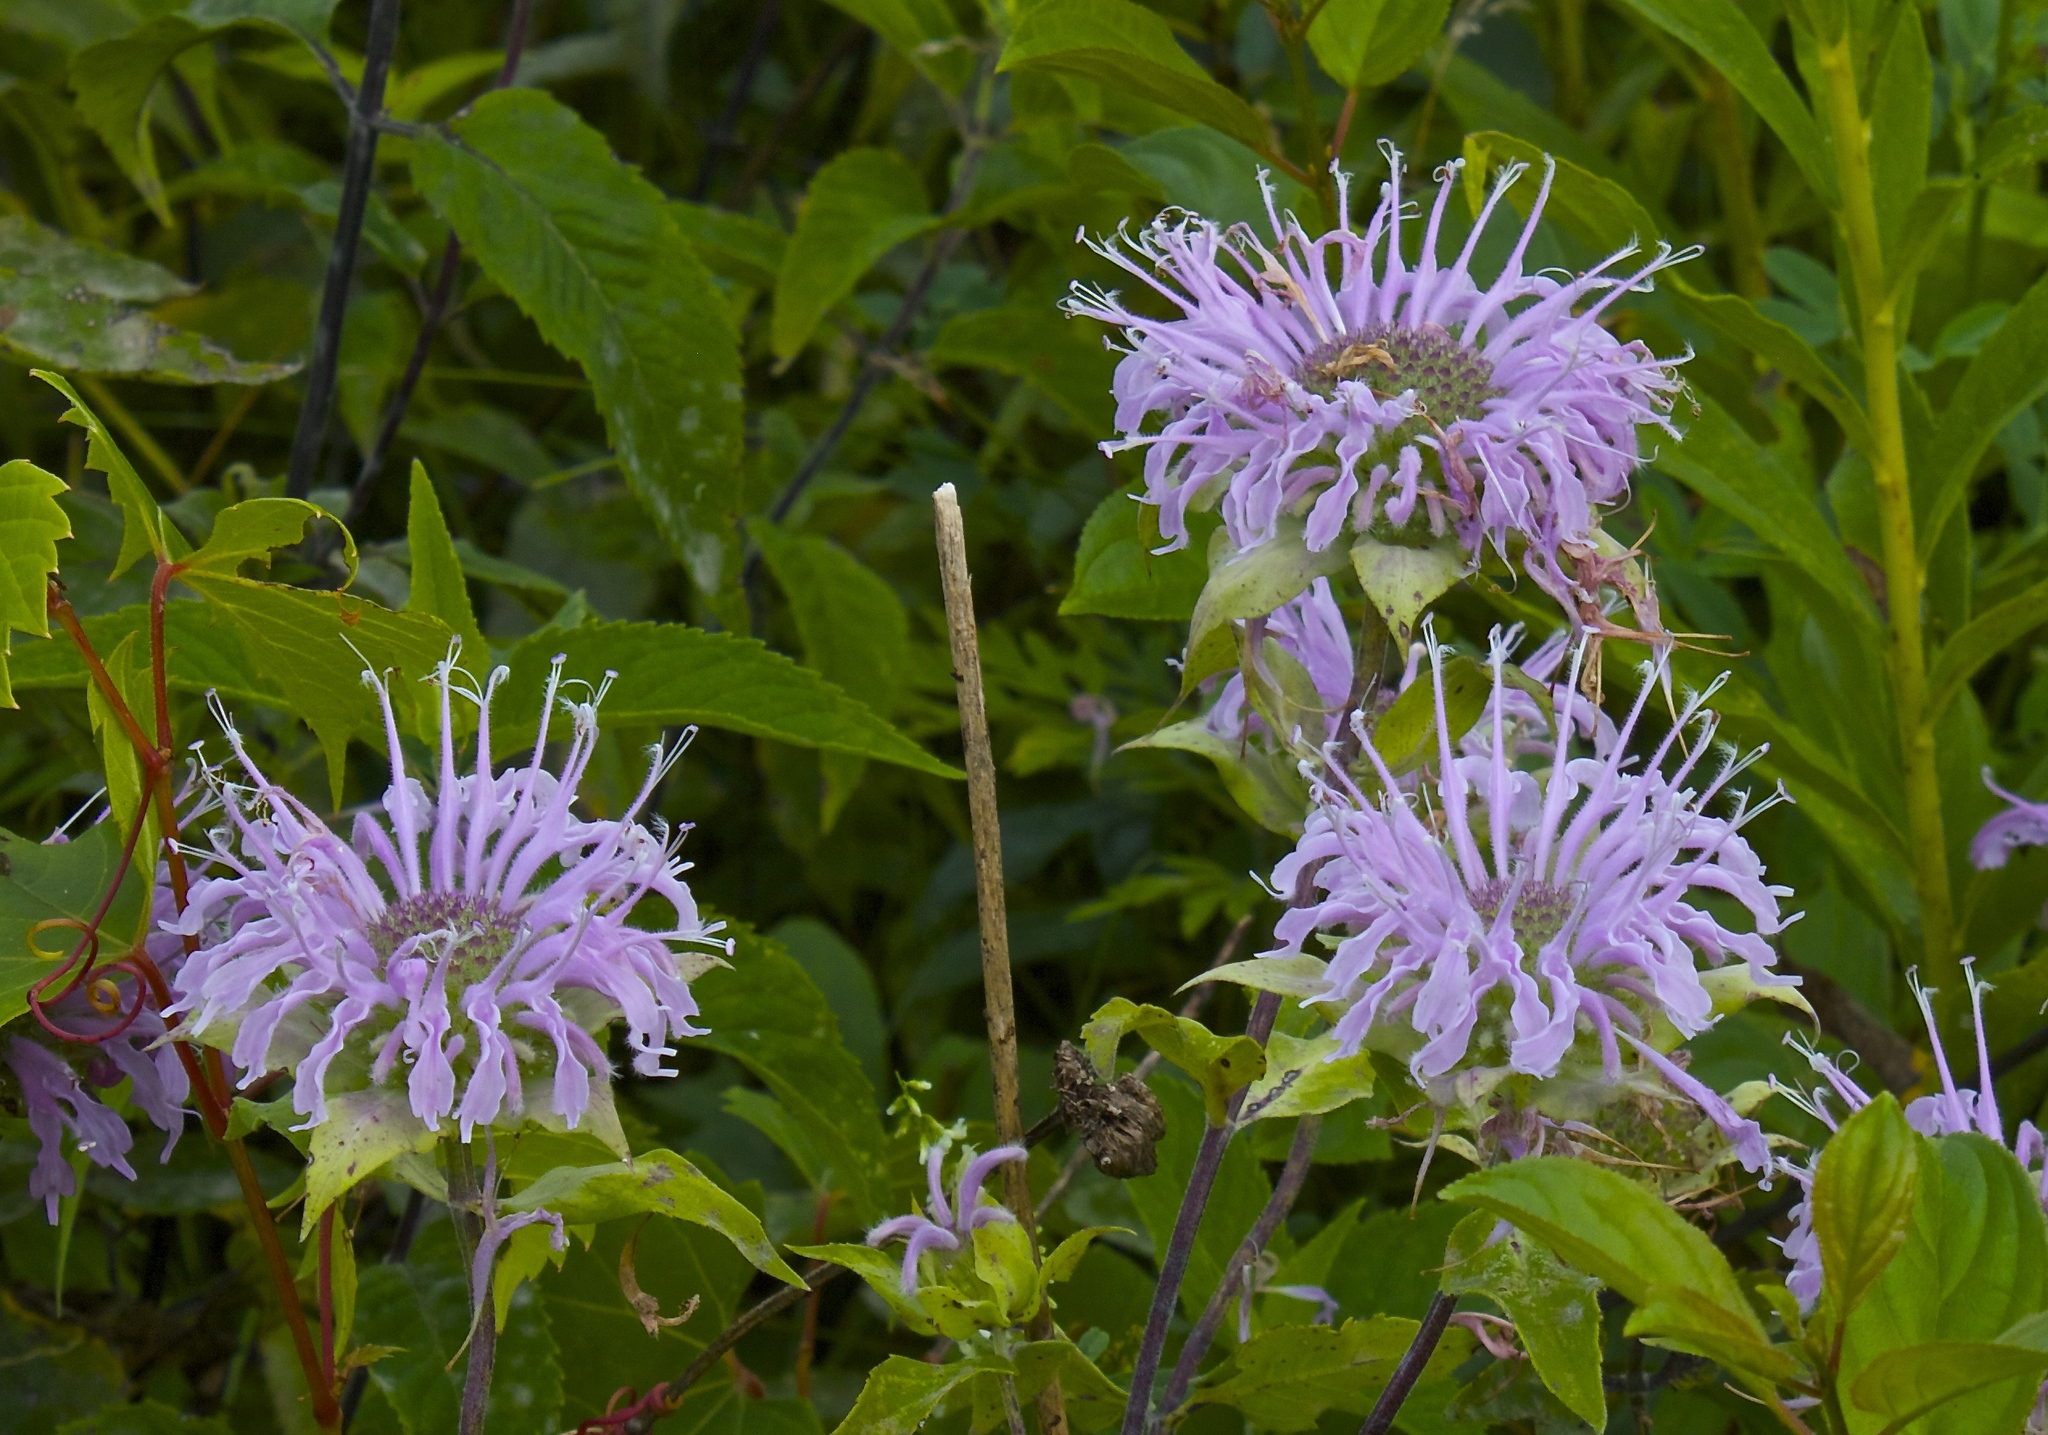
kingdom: Plantae
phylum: Tracheophyta
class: Magnoliopsida
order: Lamiales
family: Lamiaceae
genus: Monarda
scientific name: Monarda fistulosa
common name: Purple beebalm
